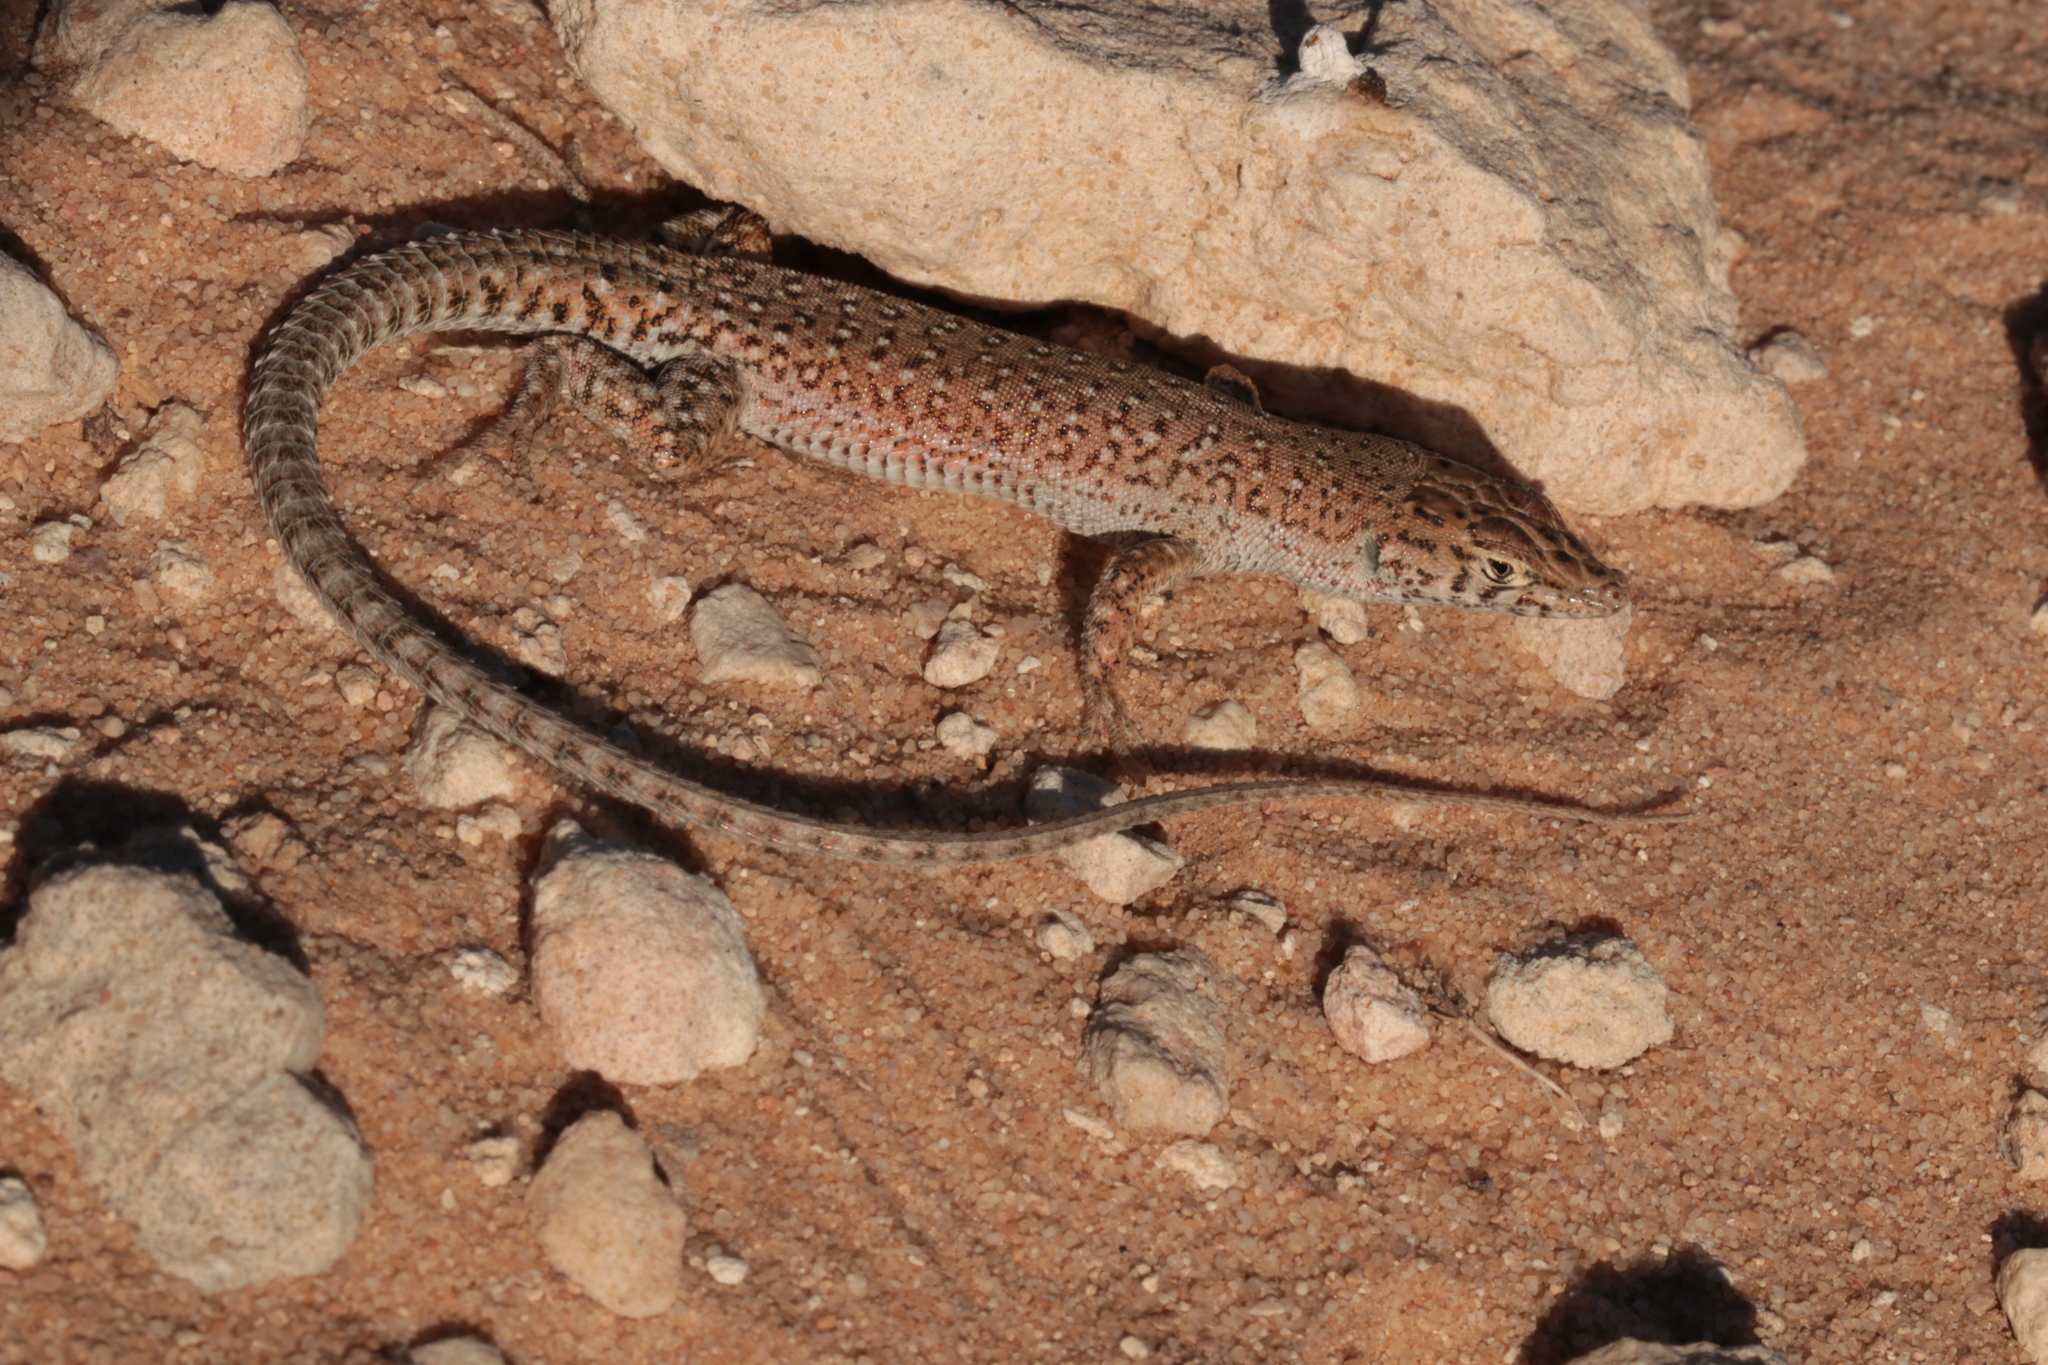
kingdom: Animalia
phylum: Chordata
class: Squamata
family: Lacertidae
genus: Mesalina
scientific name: Mesalina guttulata
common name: Desert lacerta
